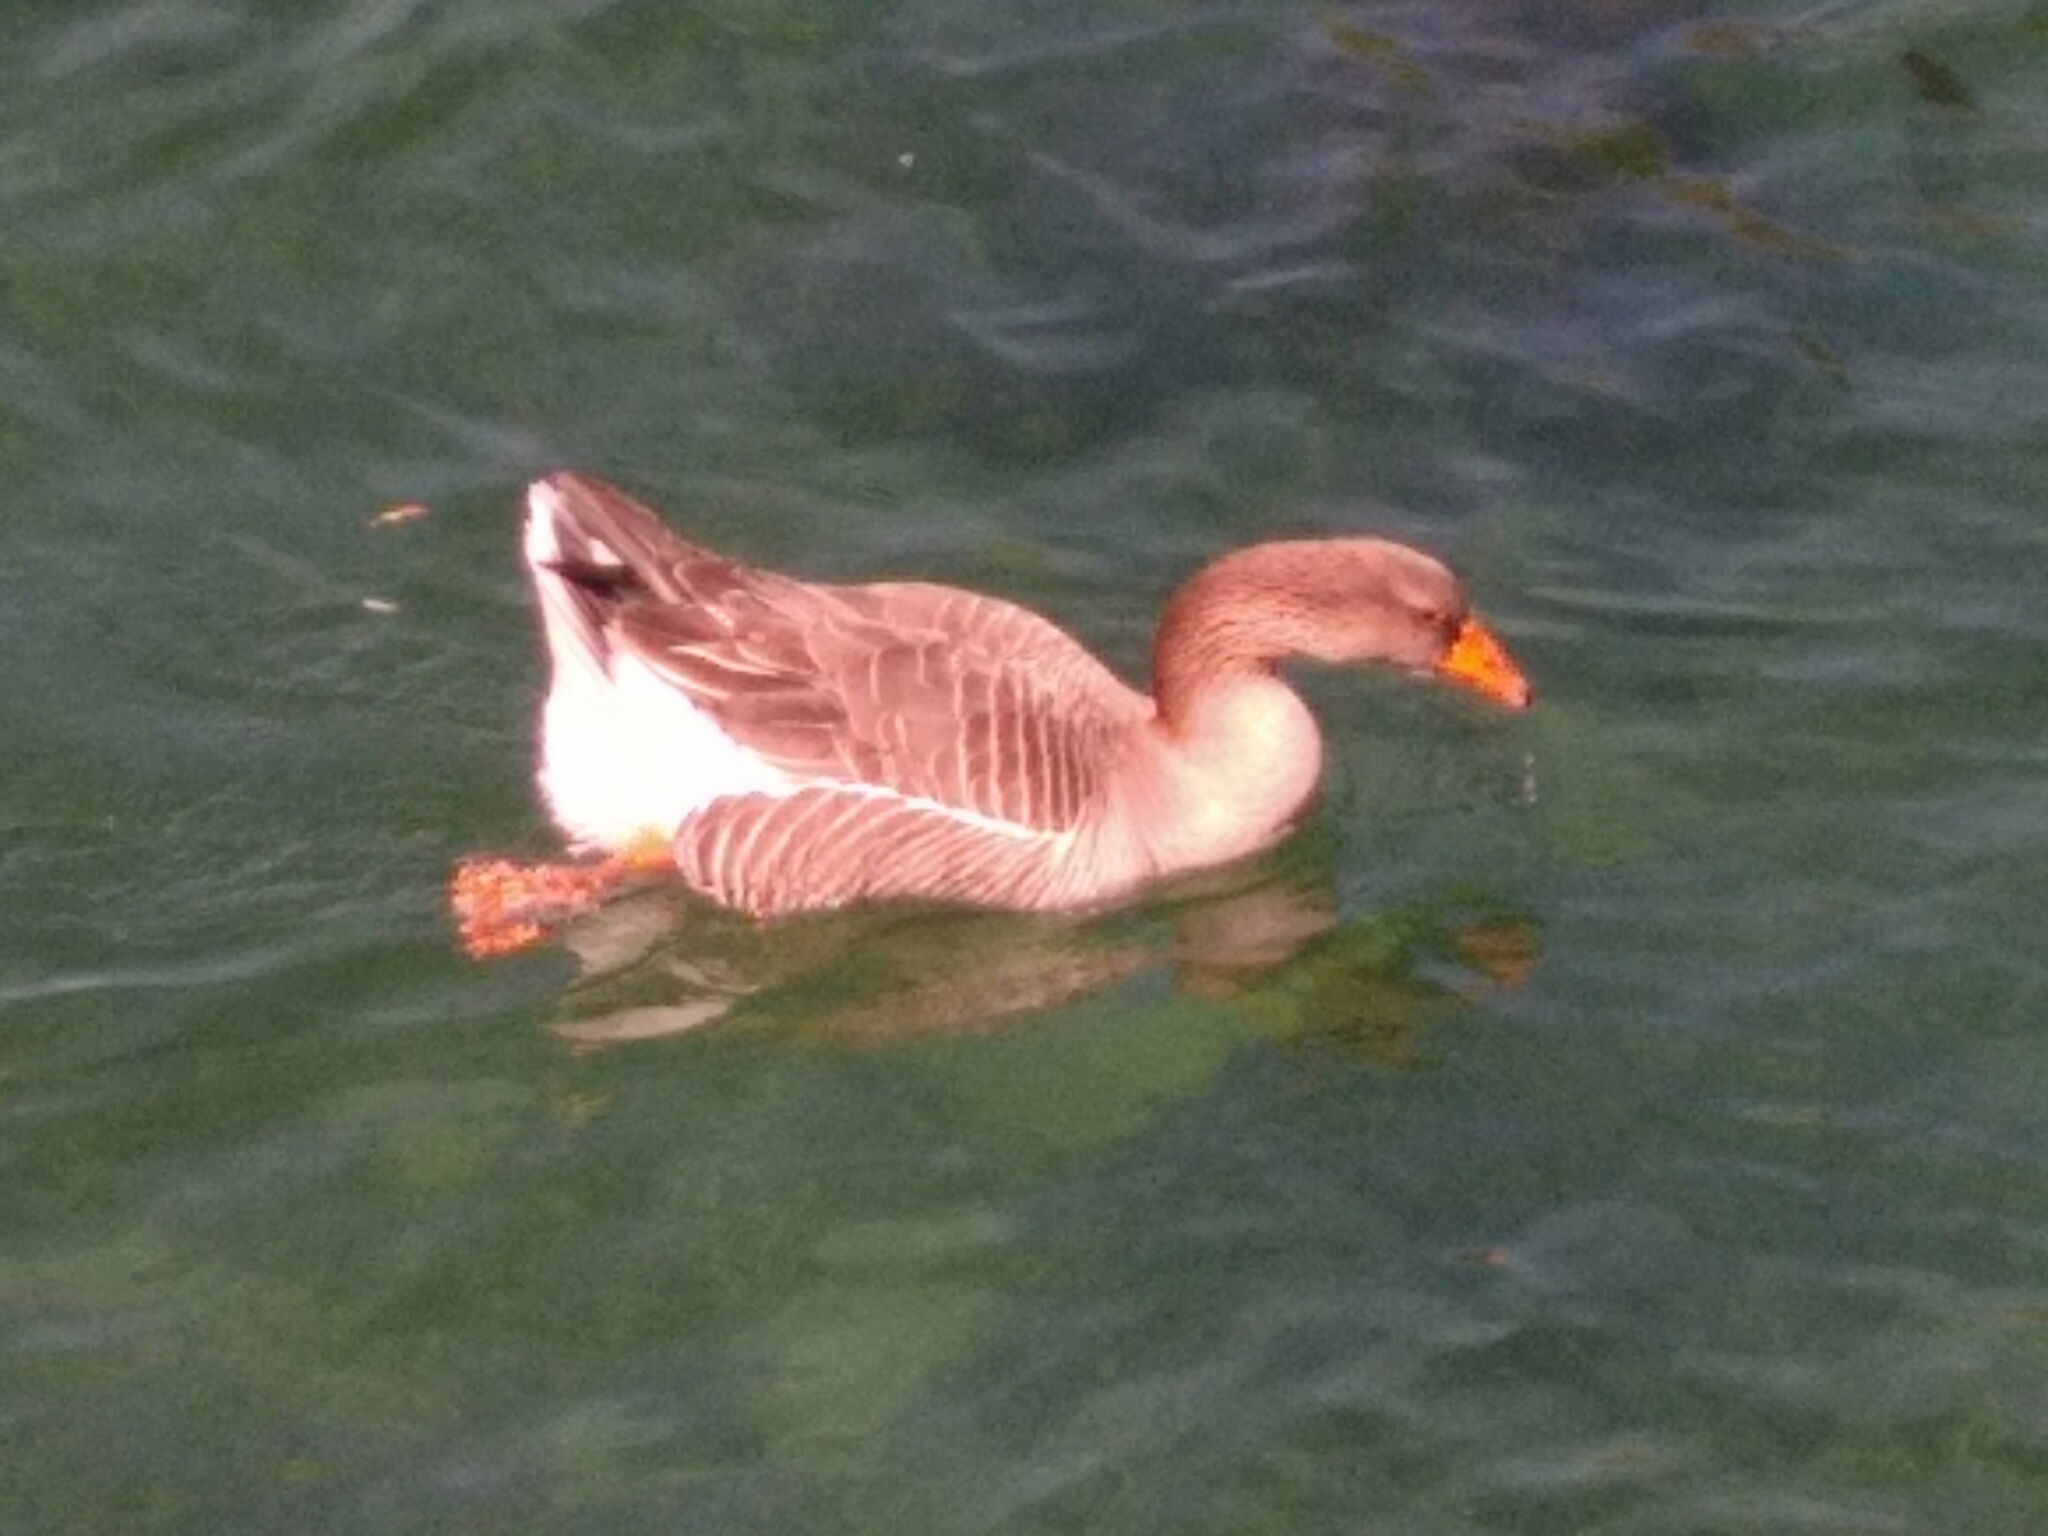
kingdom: Animalia
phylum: Chordata
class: Aves
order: Anseriformes
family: Anatidae
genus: Anser
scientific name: Anser
